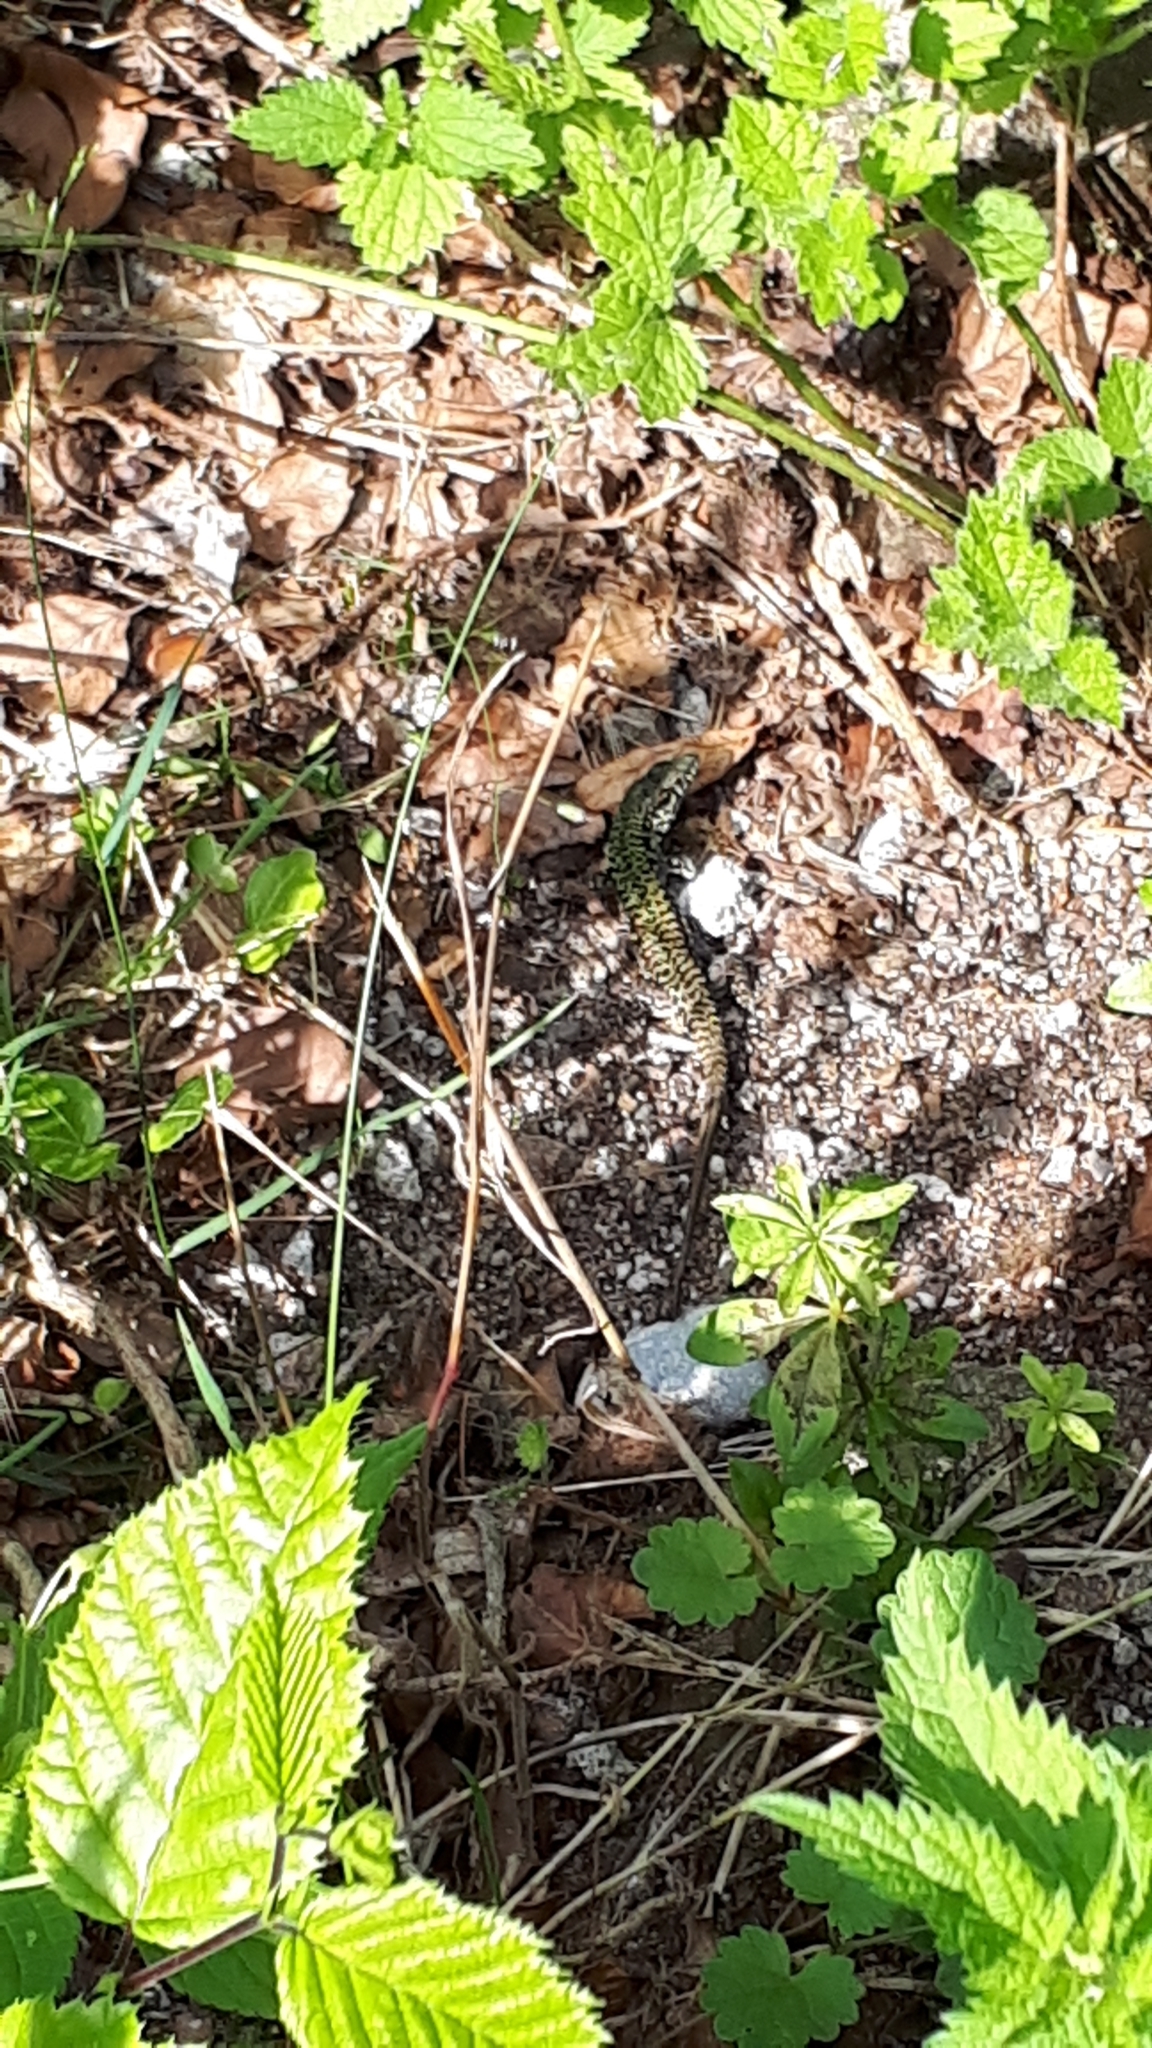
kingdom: Animalia
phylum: Chordata
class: Squamata
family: Lacertidae
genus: Podarcis
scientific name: Podarcis muralis
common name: Common wall lizard
